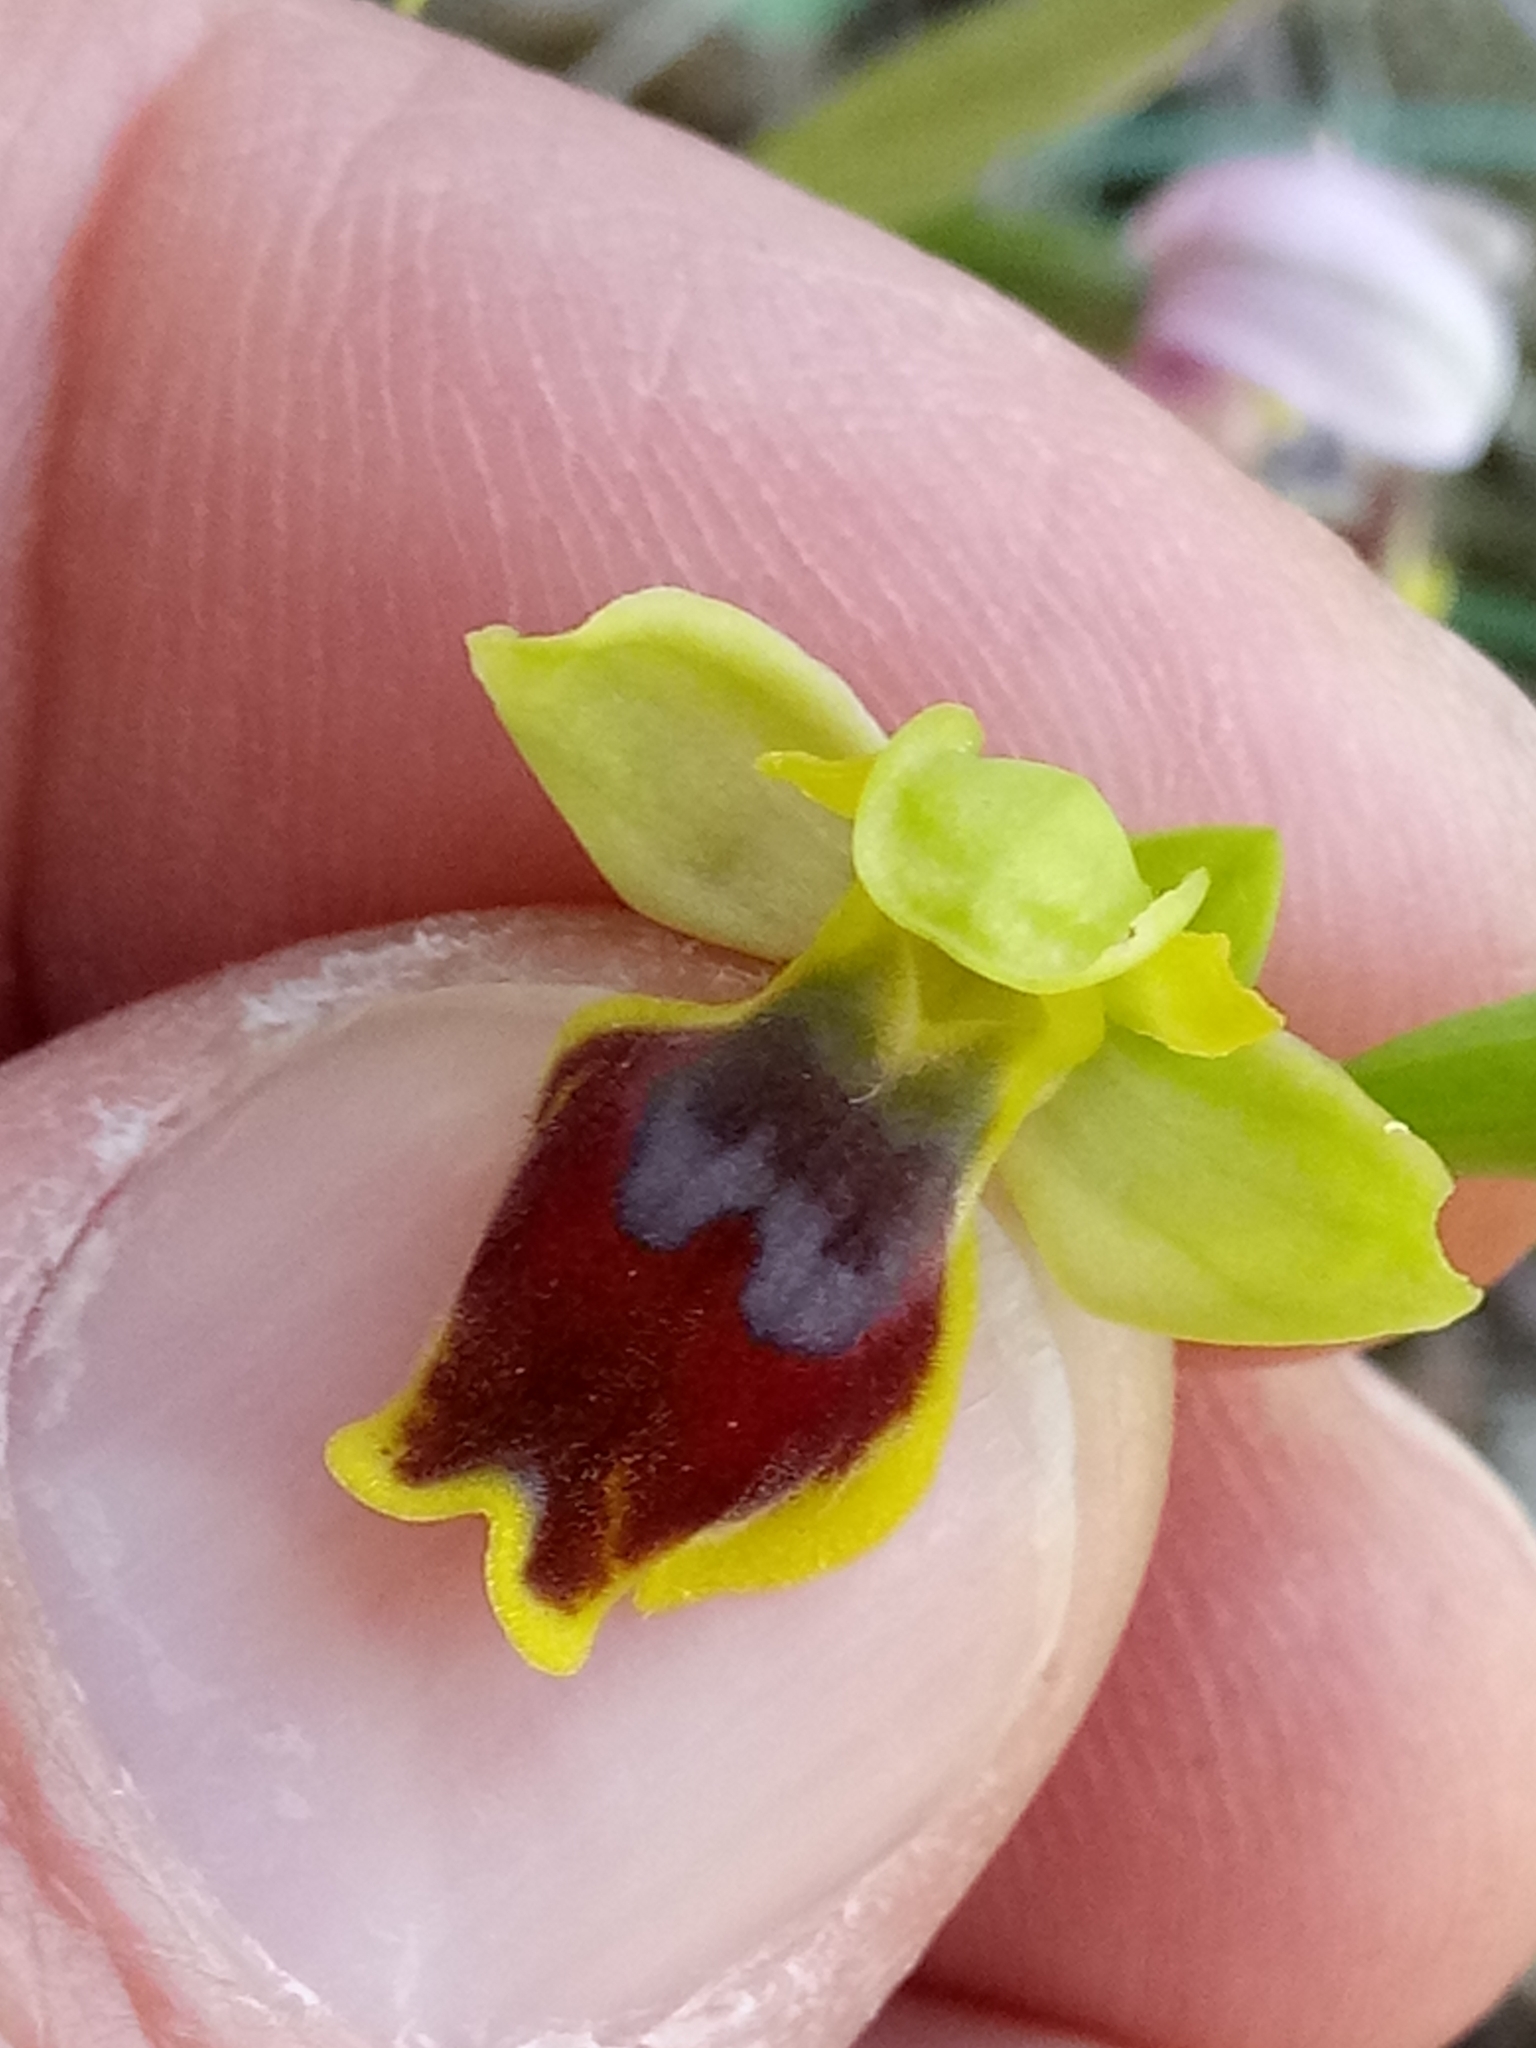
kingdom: Plantae
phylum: Tracheophyta
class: Liliopsida
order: Asparagales
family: Orchidaceae
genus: Ophrys
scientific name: Ophrys fusca
